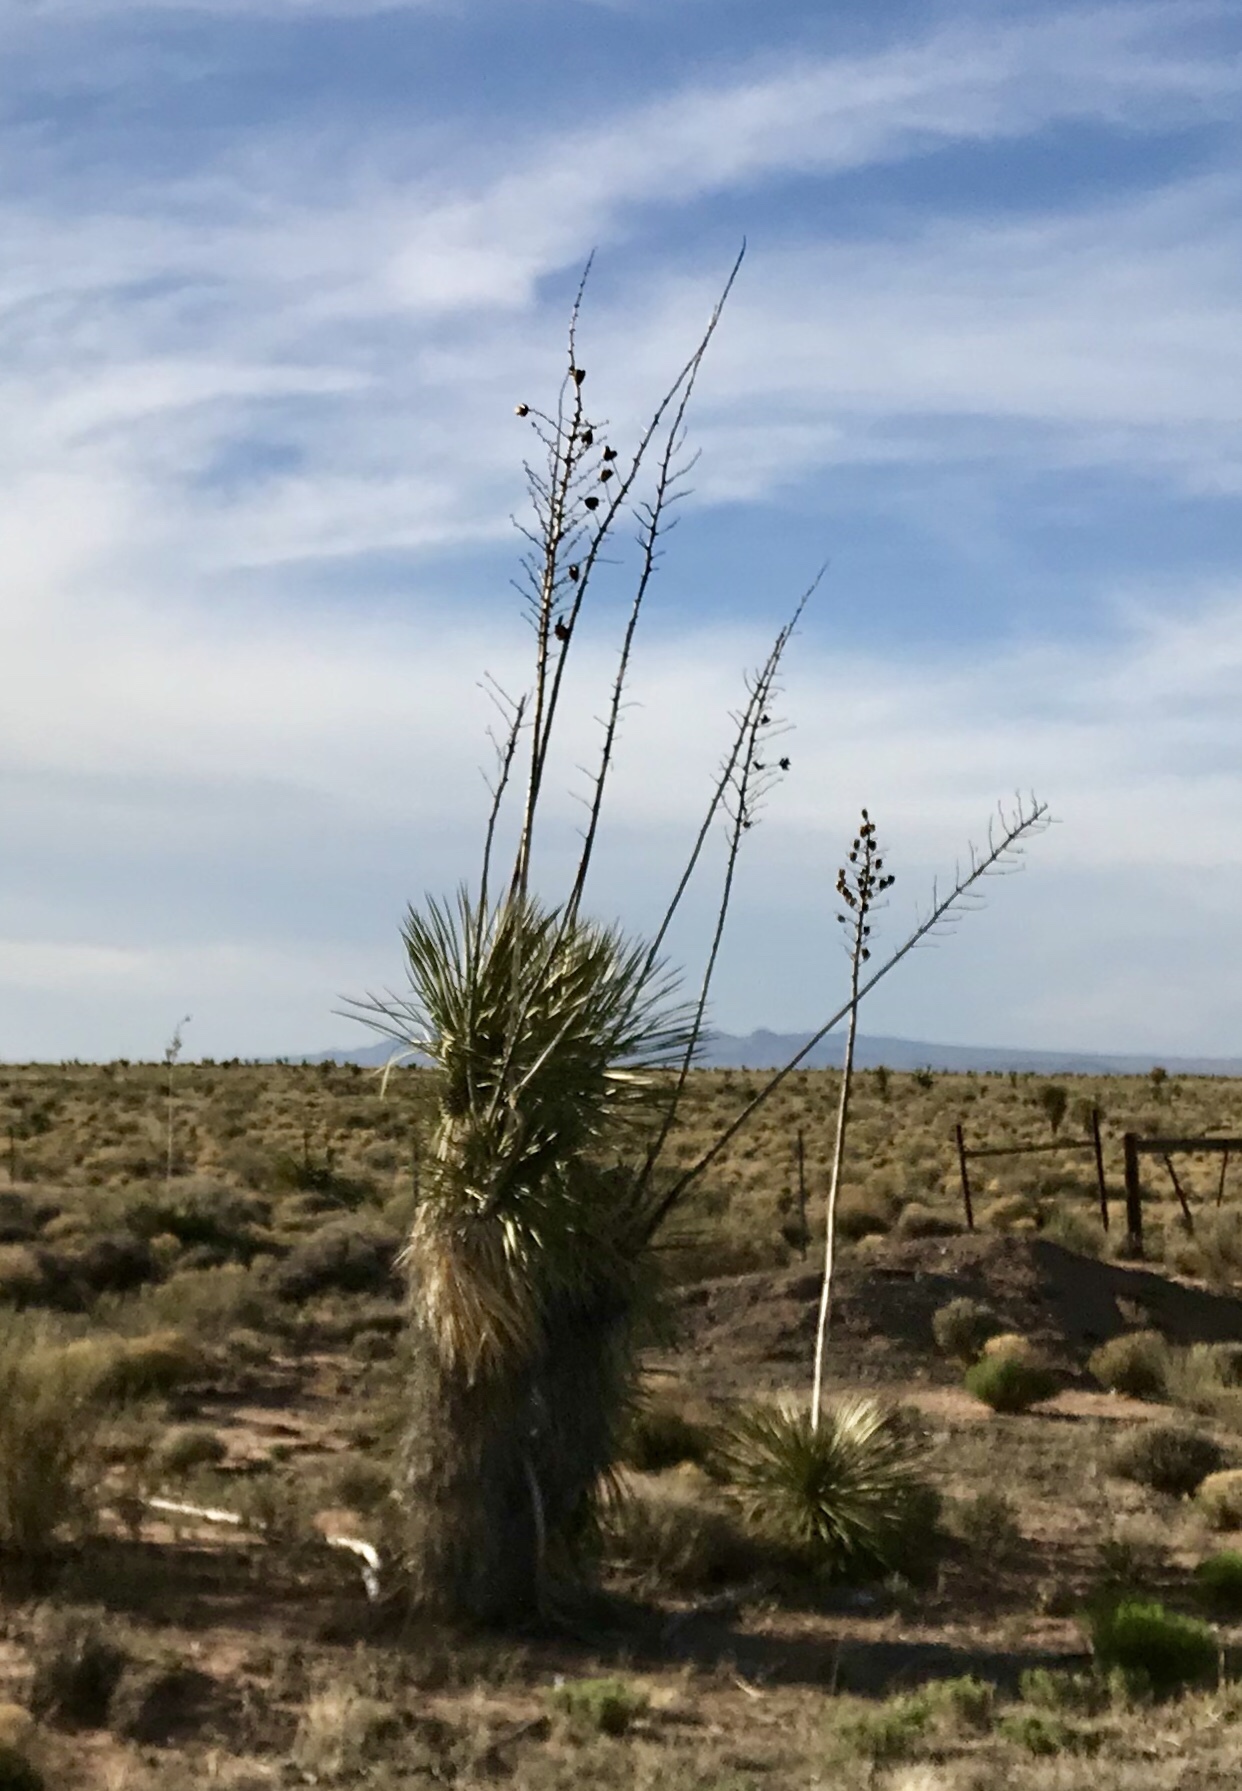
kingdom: Plantae
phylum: Tracheophyta
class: Liliopsida
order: Asparagales
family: Asparagaceae
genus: Yucca
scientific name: Yucca elata
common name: Palmella
